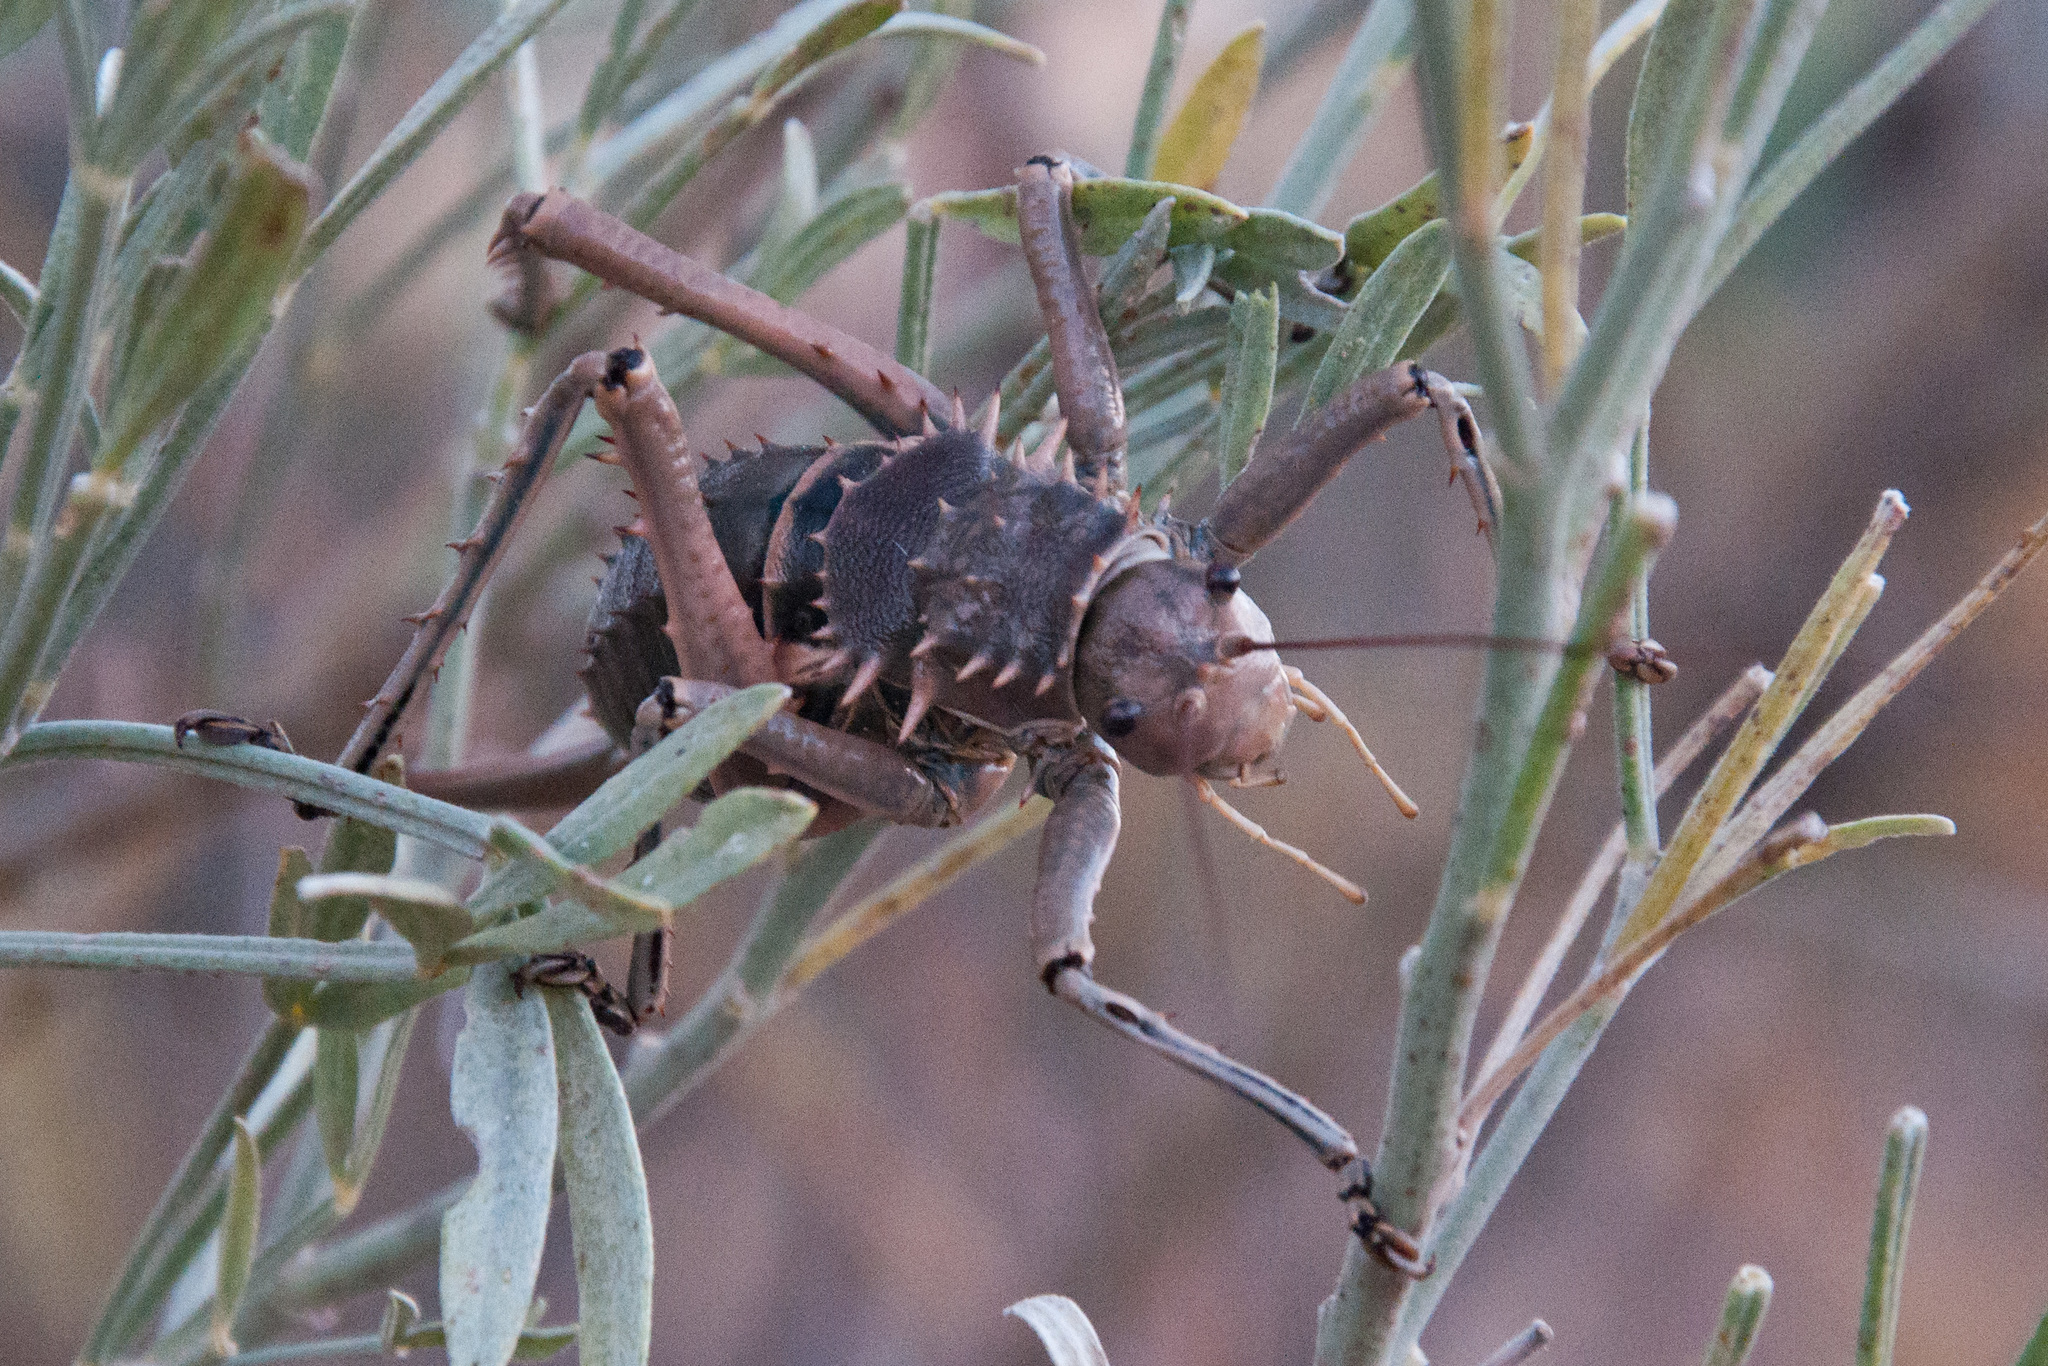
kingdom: Animalia
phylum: Arthropoda
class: Insecta
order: Orthoptera
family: Tettigoniidae
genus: Hetrodes
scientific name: Hetrodes pupus
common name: Koringkriek
